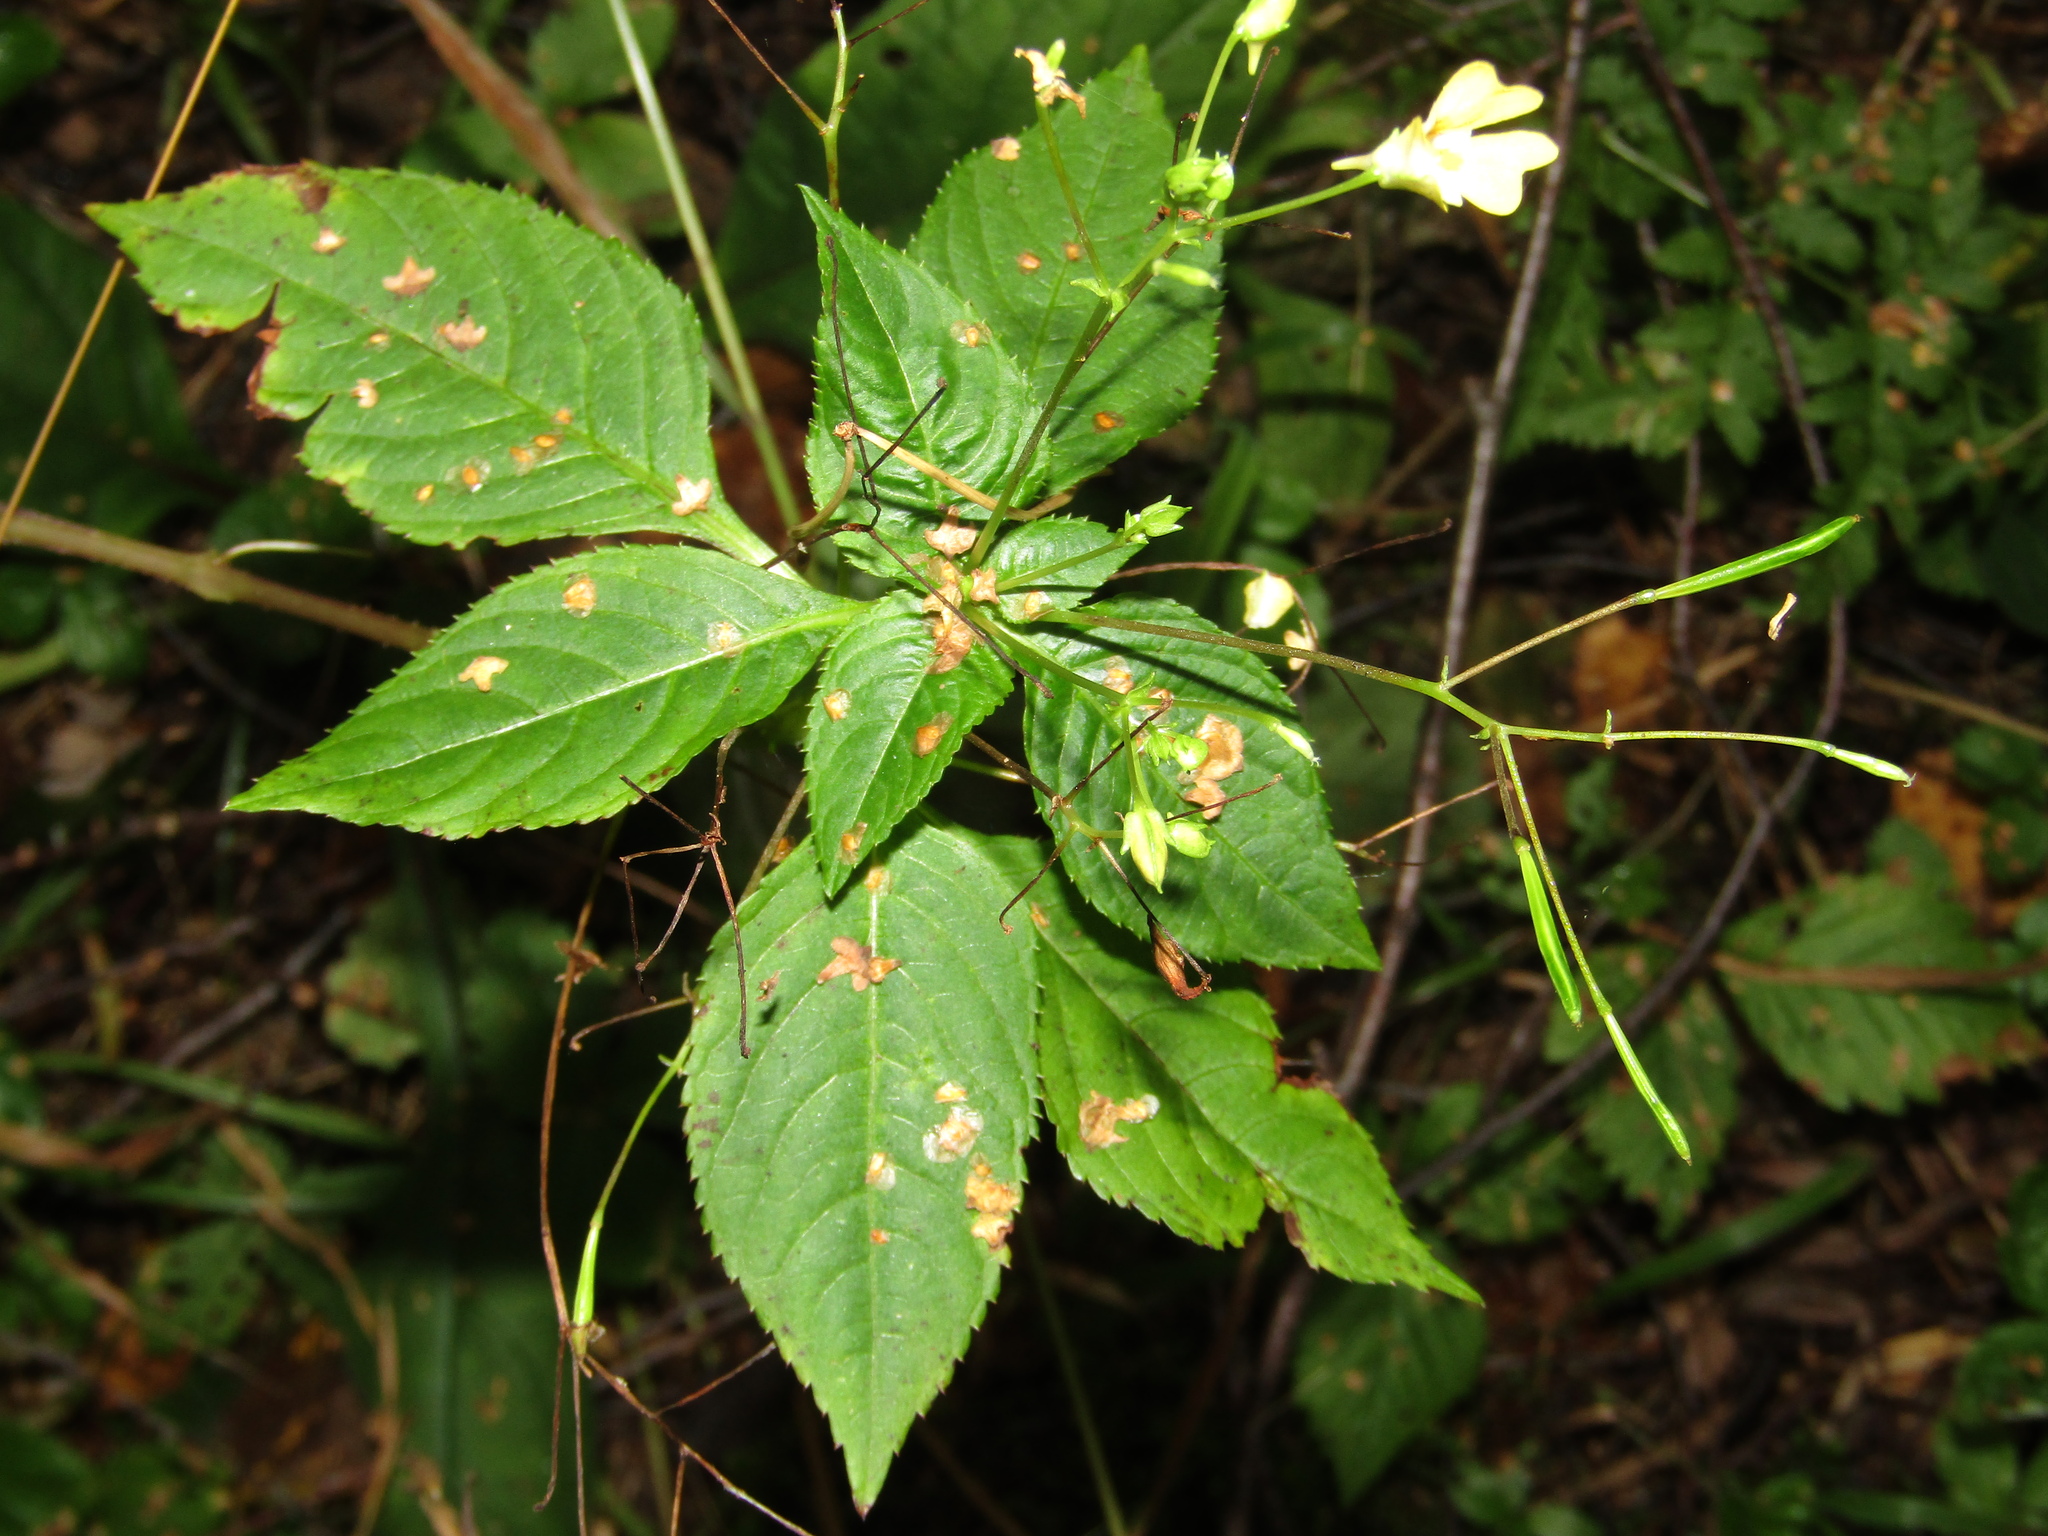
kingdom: Plantae
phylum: Tracheophyta
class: Magnoliopsida
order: Ericales
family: Balsaminaceae
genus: Impatiens
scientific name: Impatiens parviflora
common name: Small balsam
